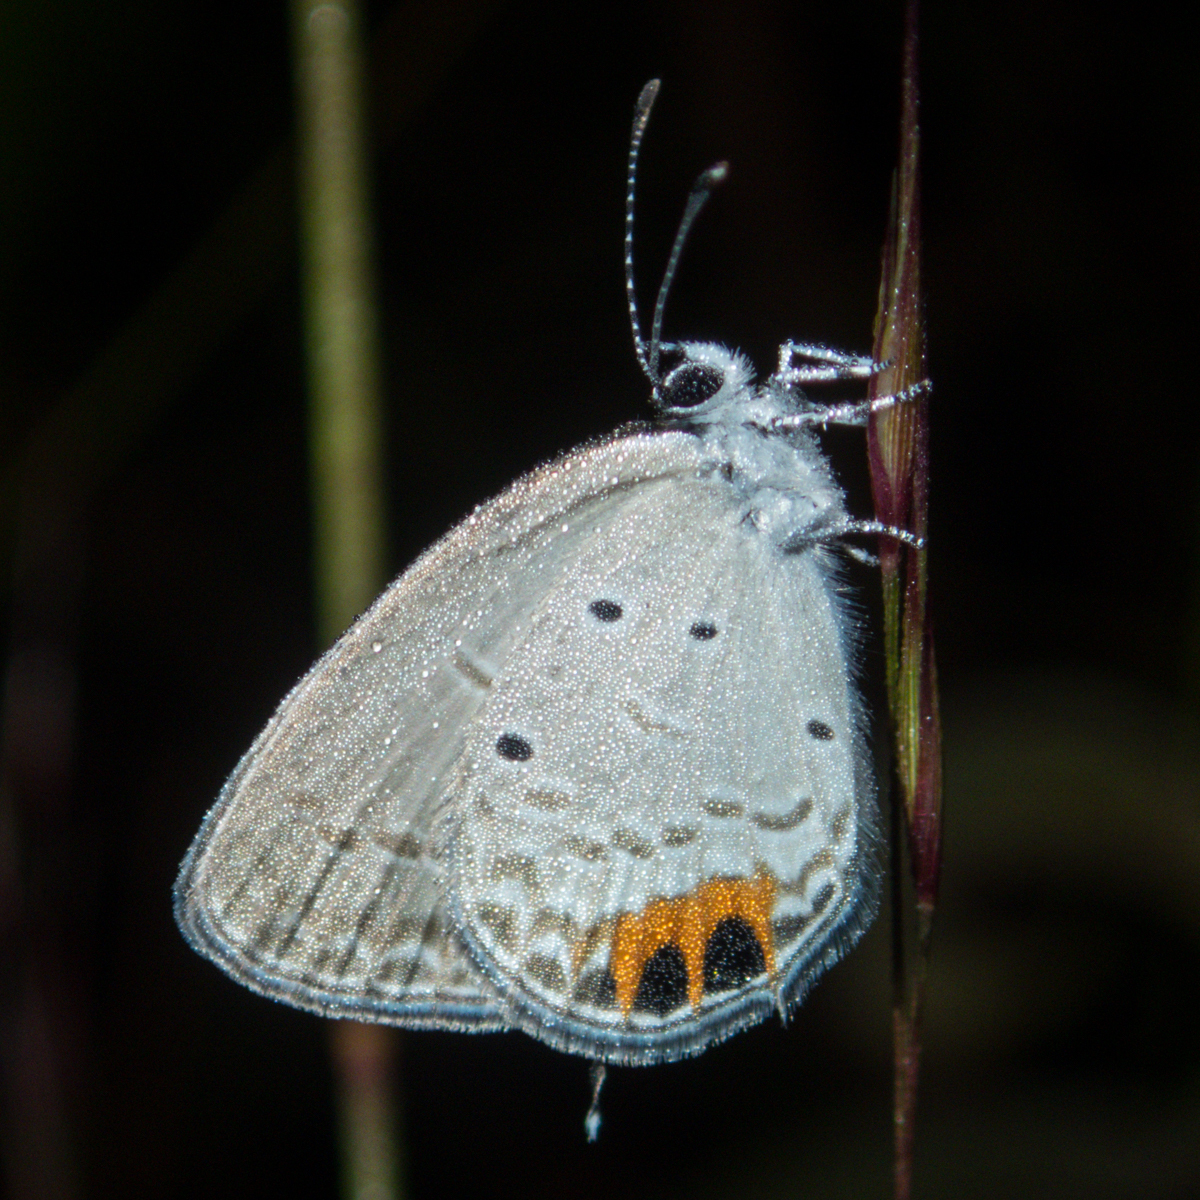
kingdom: Animalia
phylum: Arthropoda
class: Insecta
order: Lepidoptera
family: Lycaenidae
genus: Everes
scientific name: Everes lacturnus
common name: Orange-tipped pea-blue
